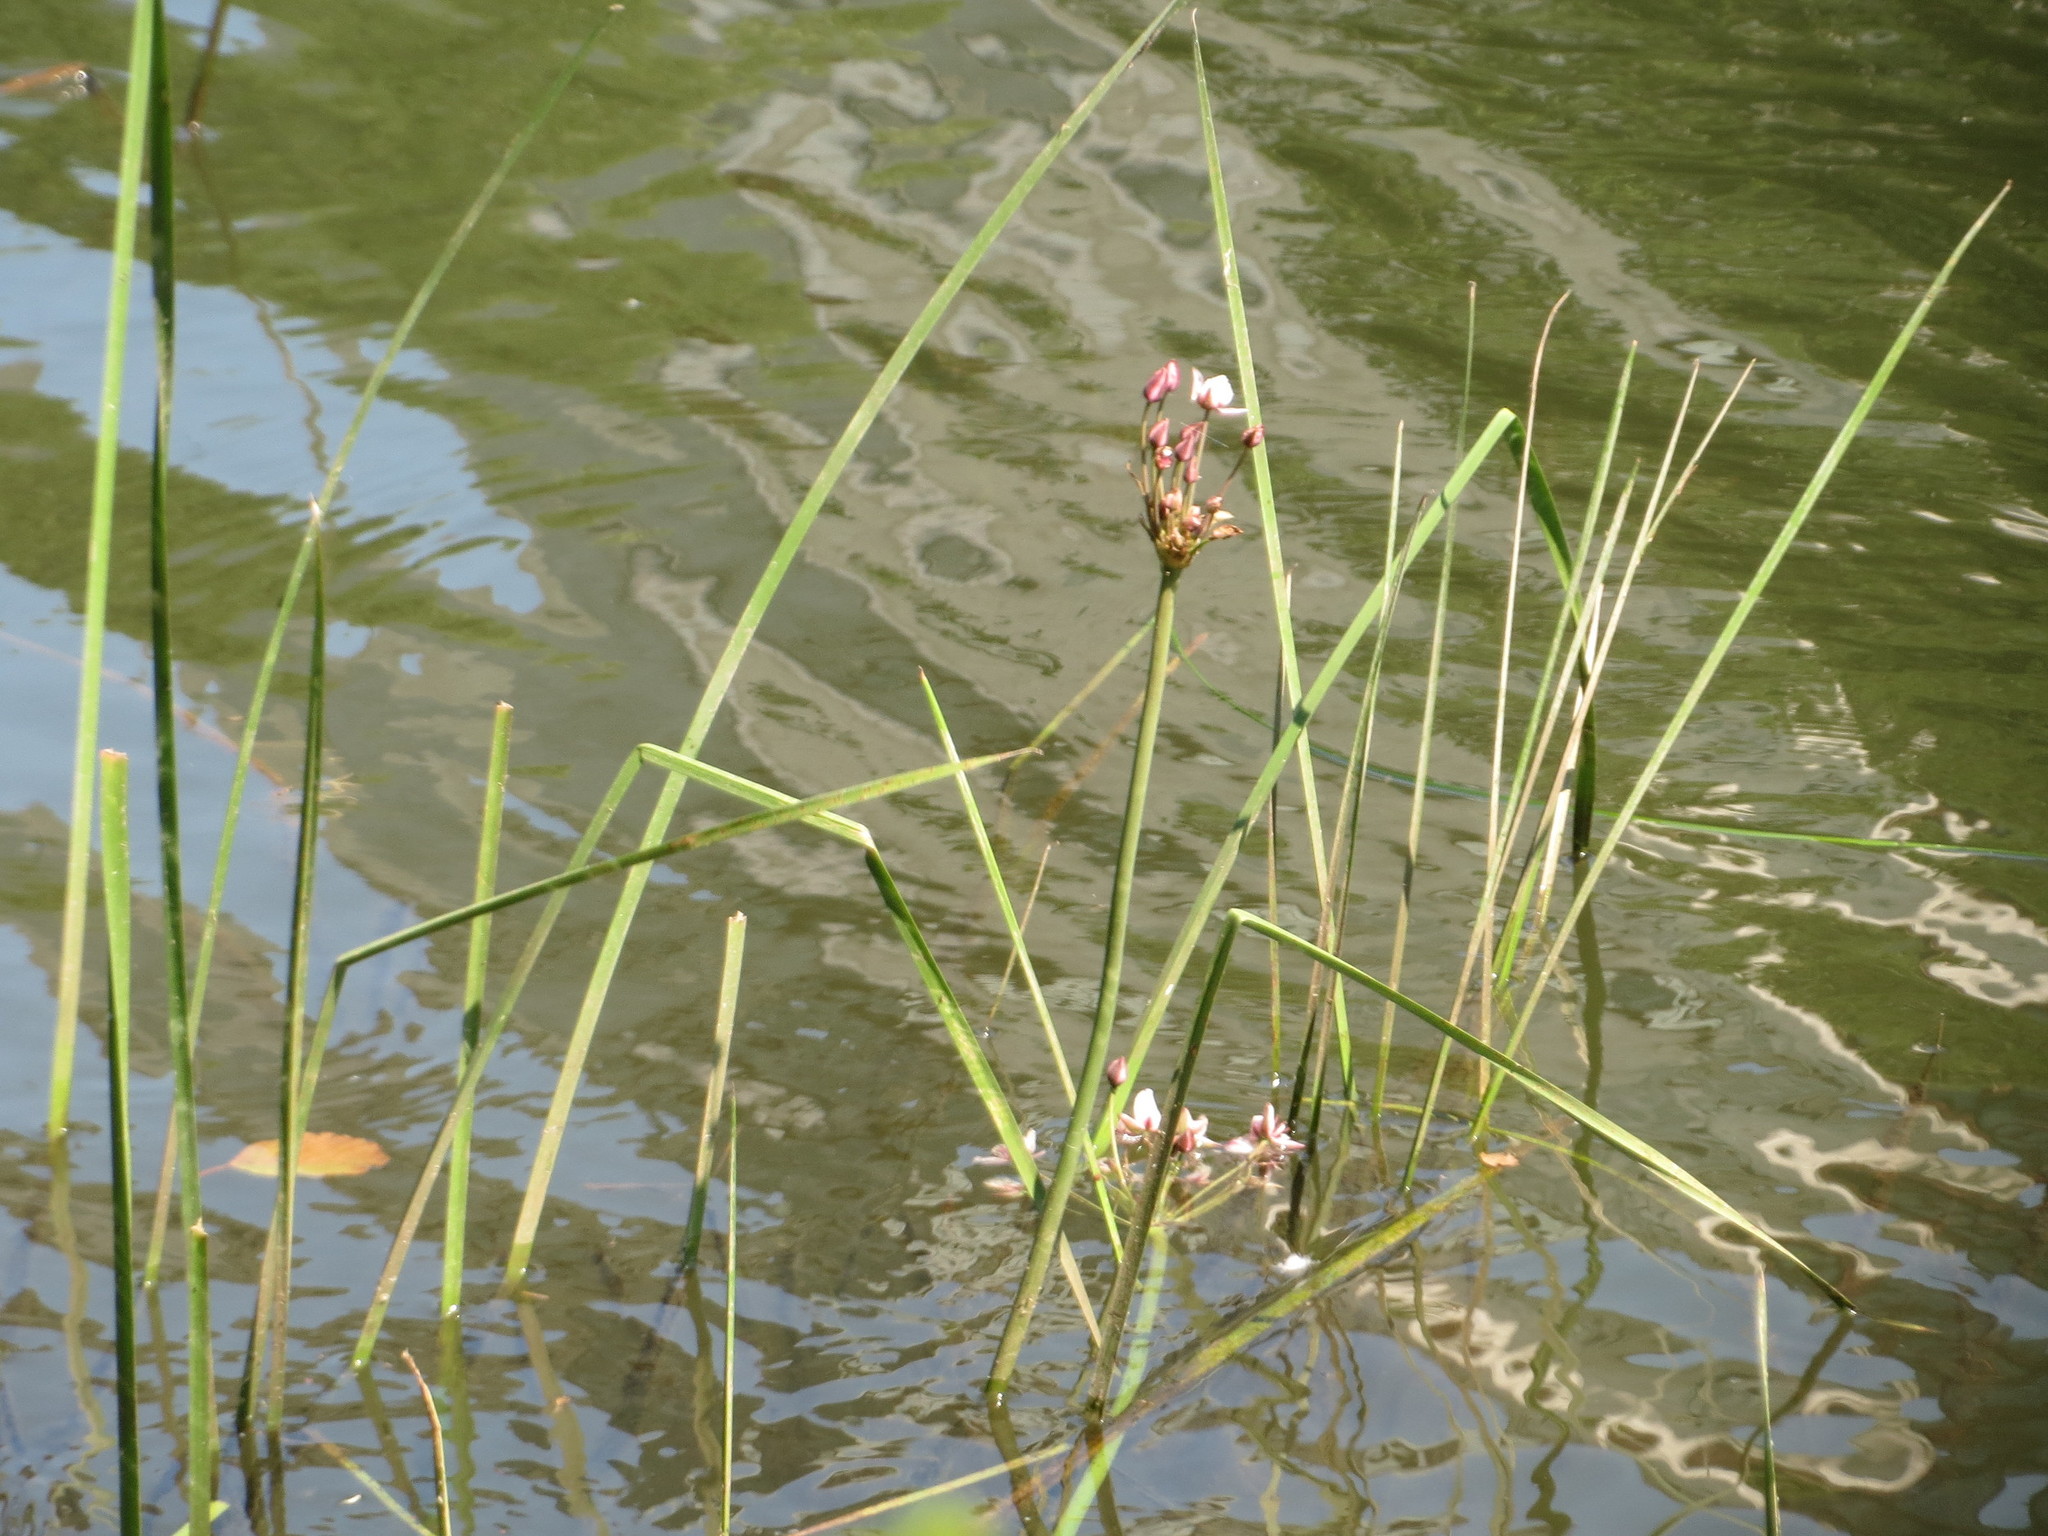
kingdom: Plantae
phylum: Tracheophyta
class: Liliopsida
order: Alismatales
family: Butomaceae
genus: Butomus
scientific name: Butomus umbellatus
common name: Flowering-rush
